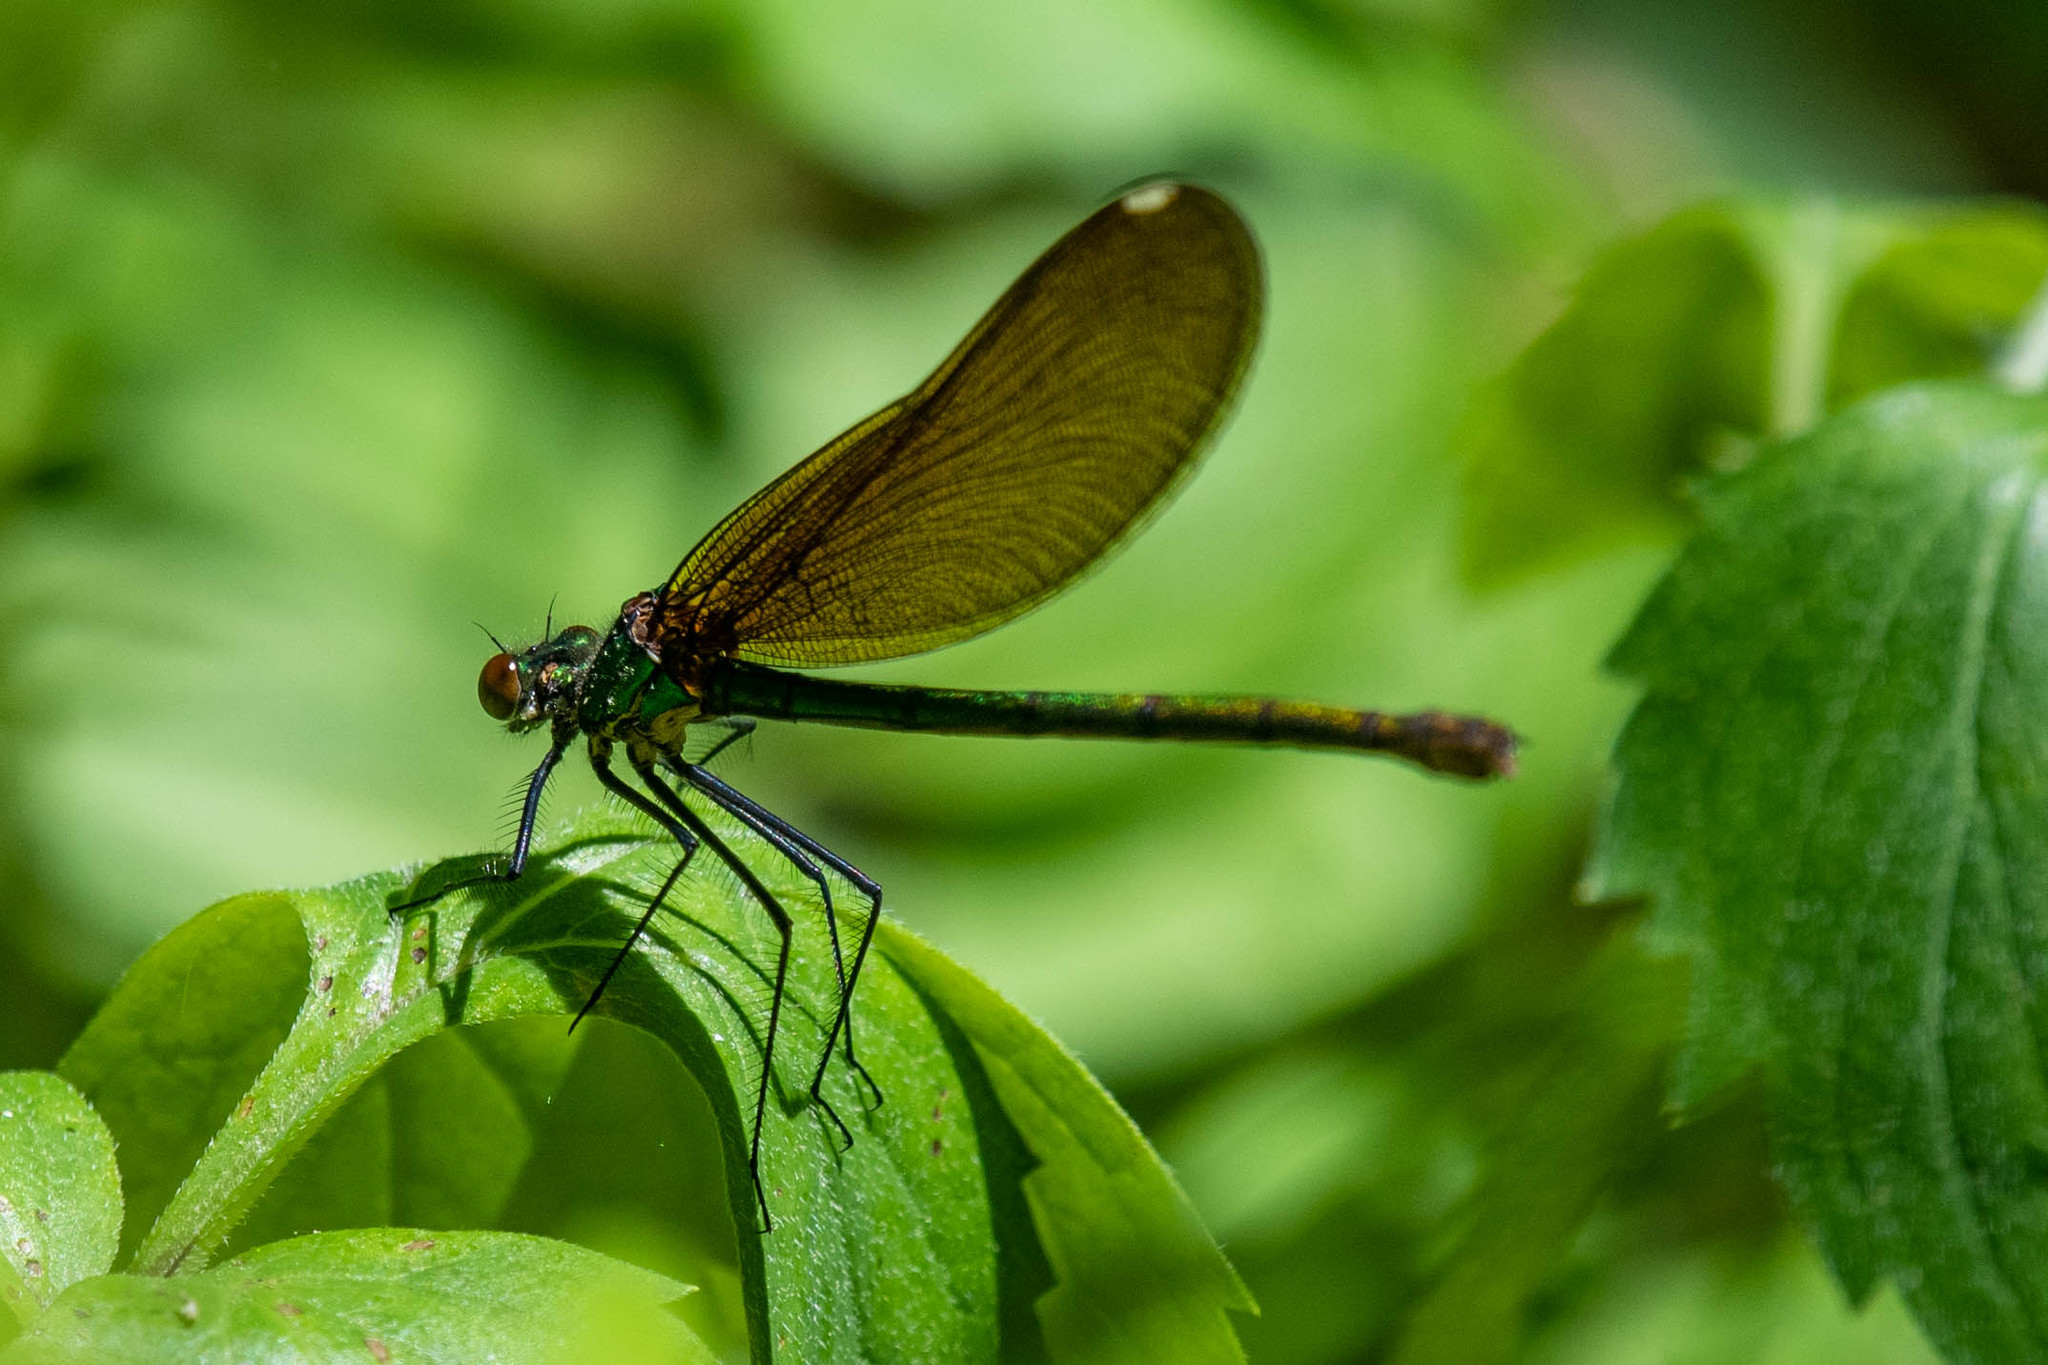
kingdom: Animalia
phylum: Arthropoda
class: Insecta
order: Odonata
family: Calopterygidae
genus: Calopteryx
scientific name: Calopteryx maculata
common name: Ebony jewelwing
